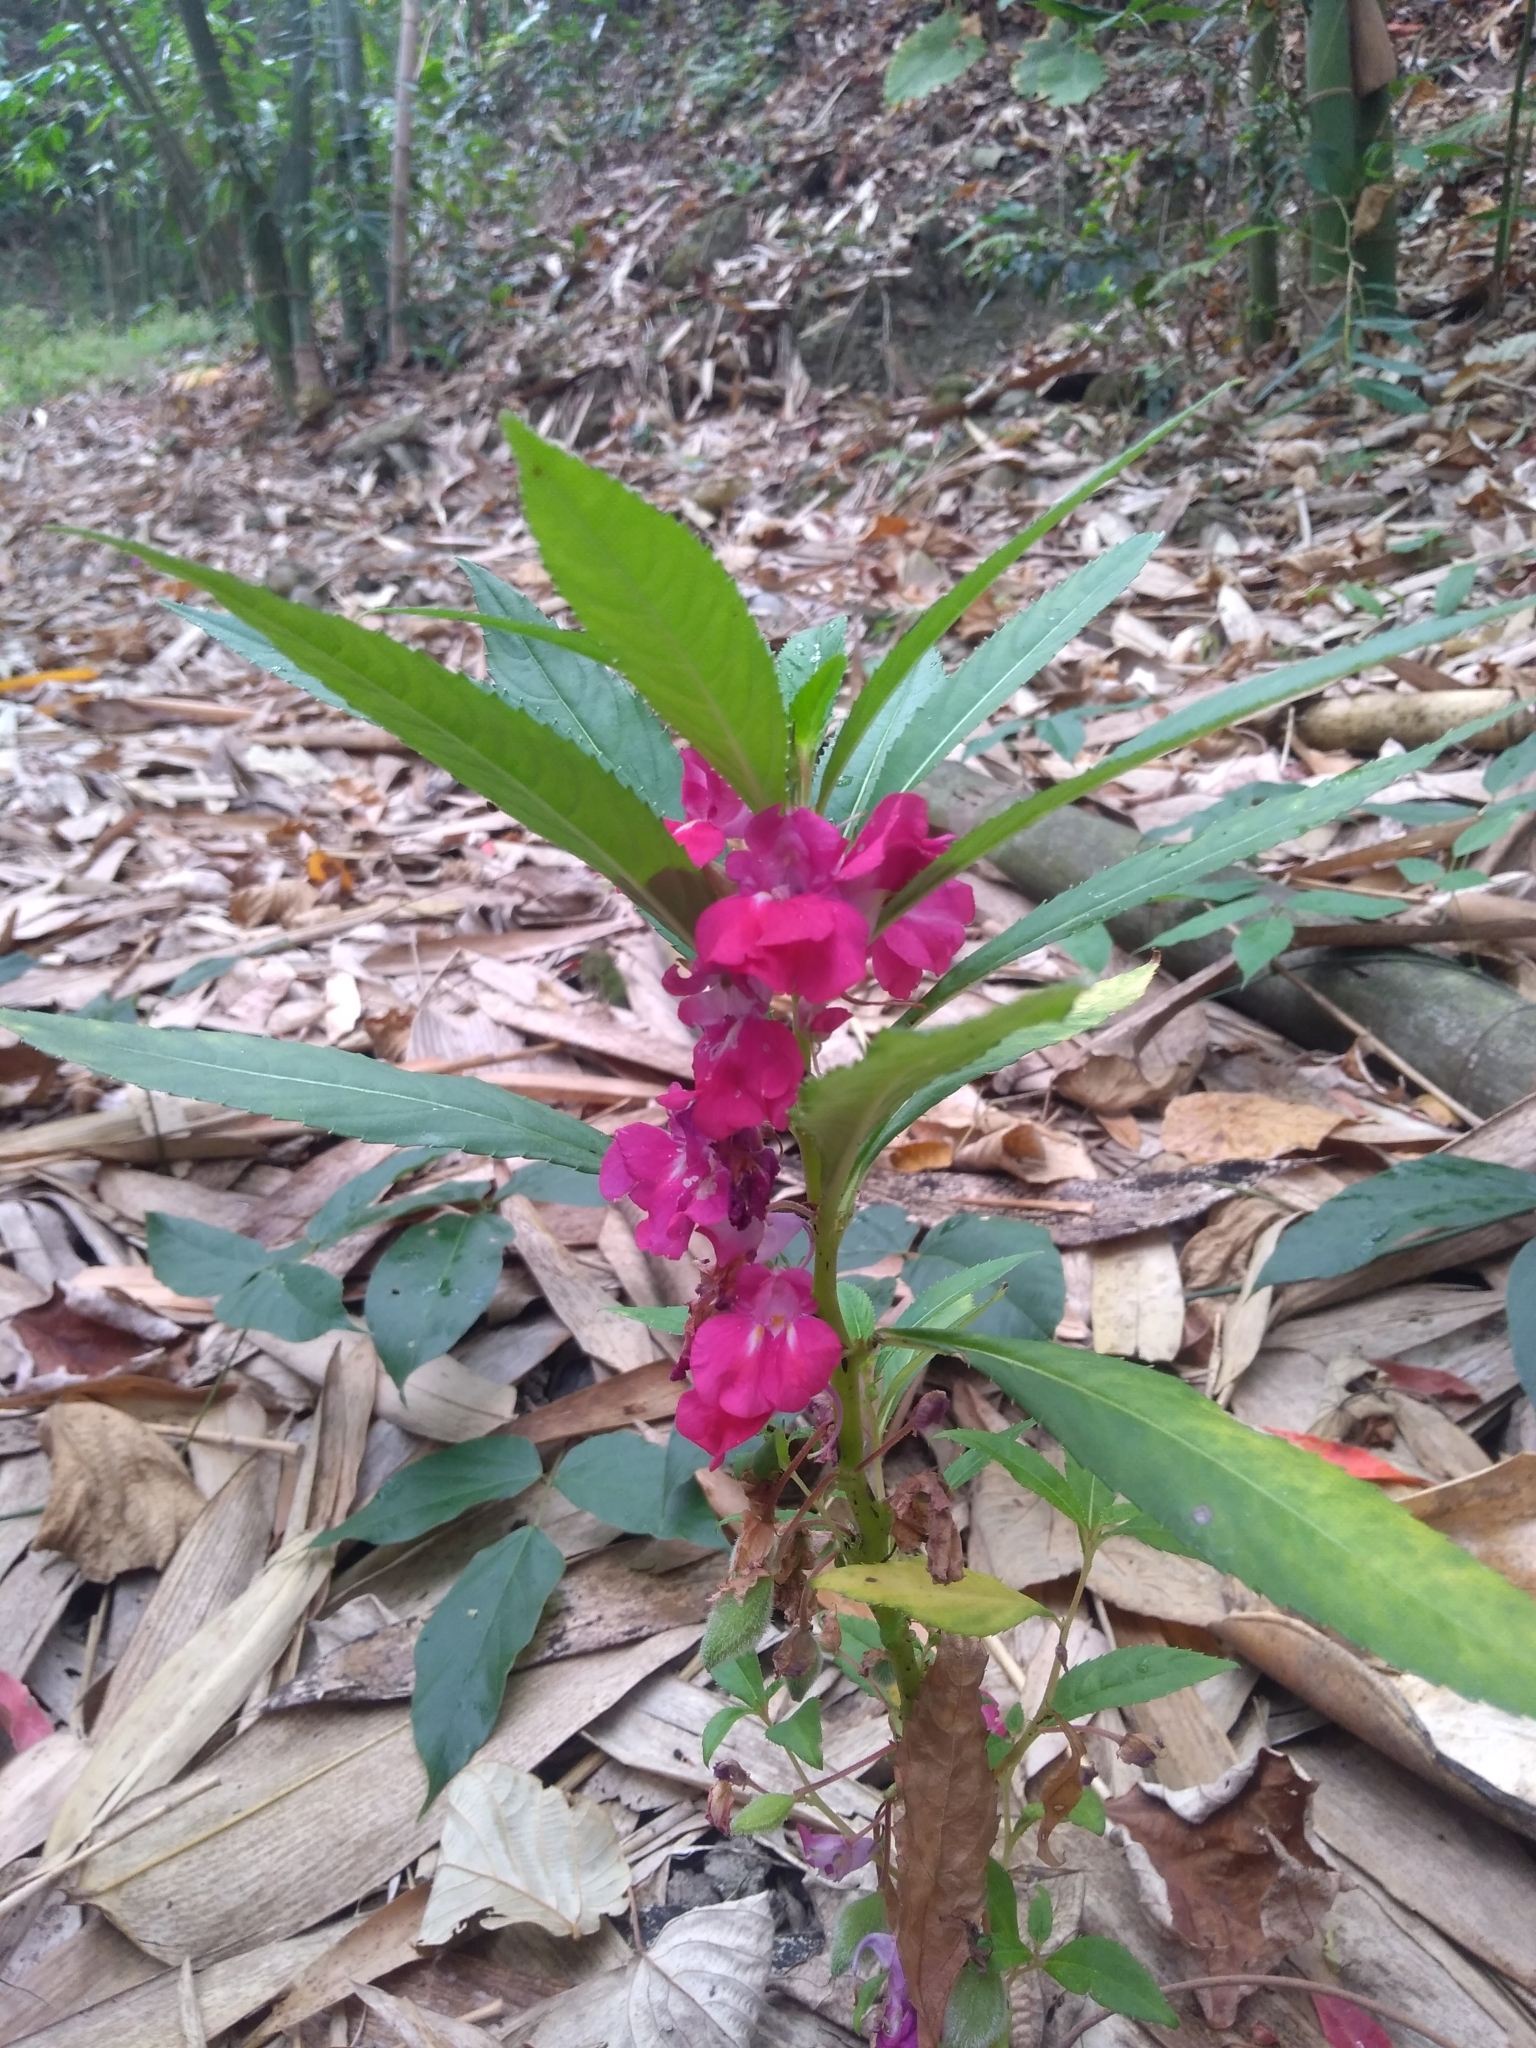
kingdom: Plantae
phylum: Tracheophyta
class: Magnoliopsida
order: Ericales
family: Balsaminaceae
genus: Impatiens
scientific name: Impatiens balsamina
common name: Balsam
